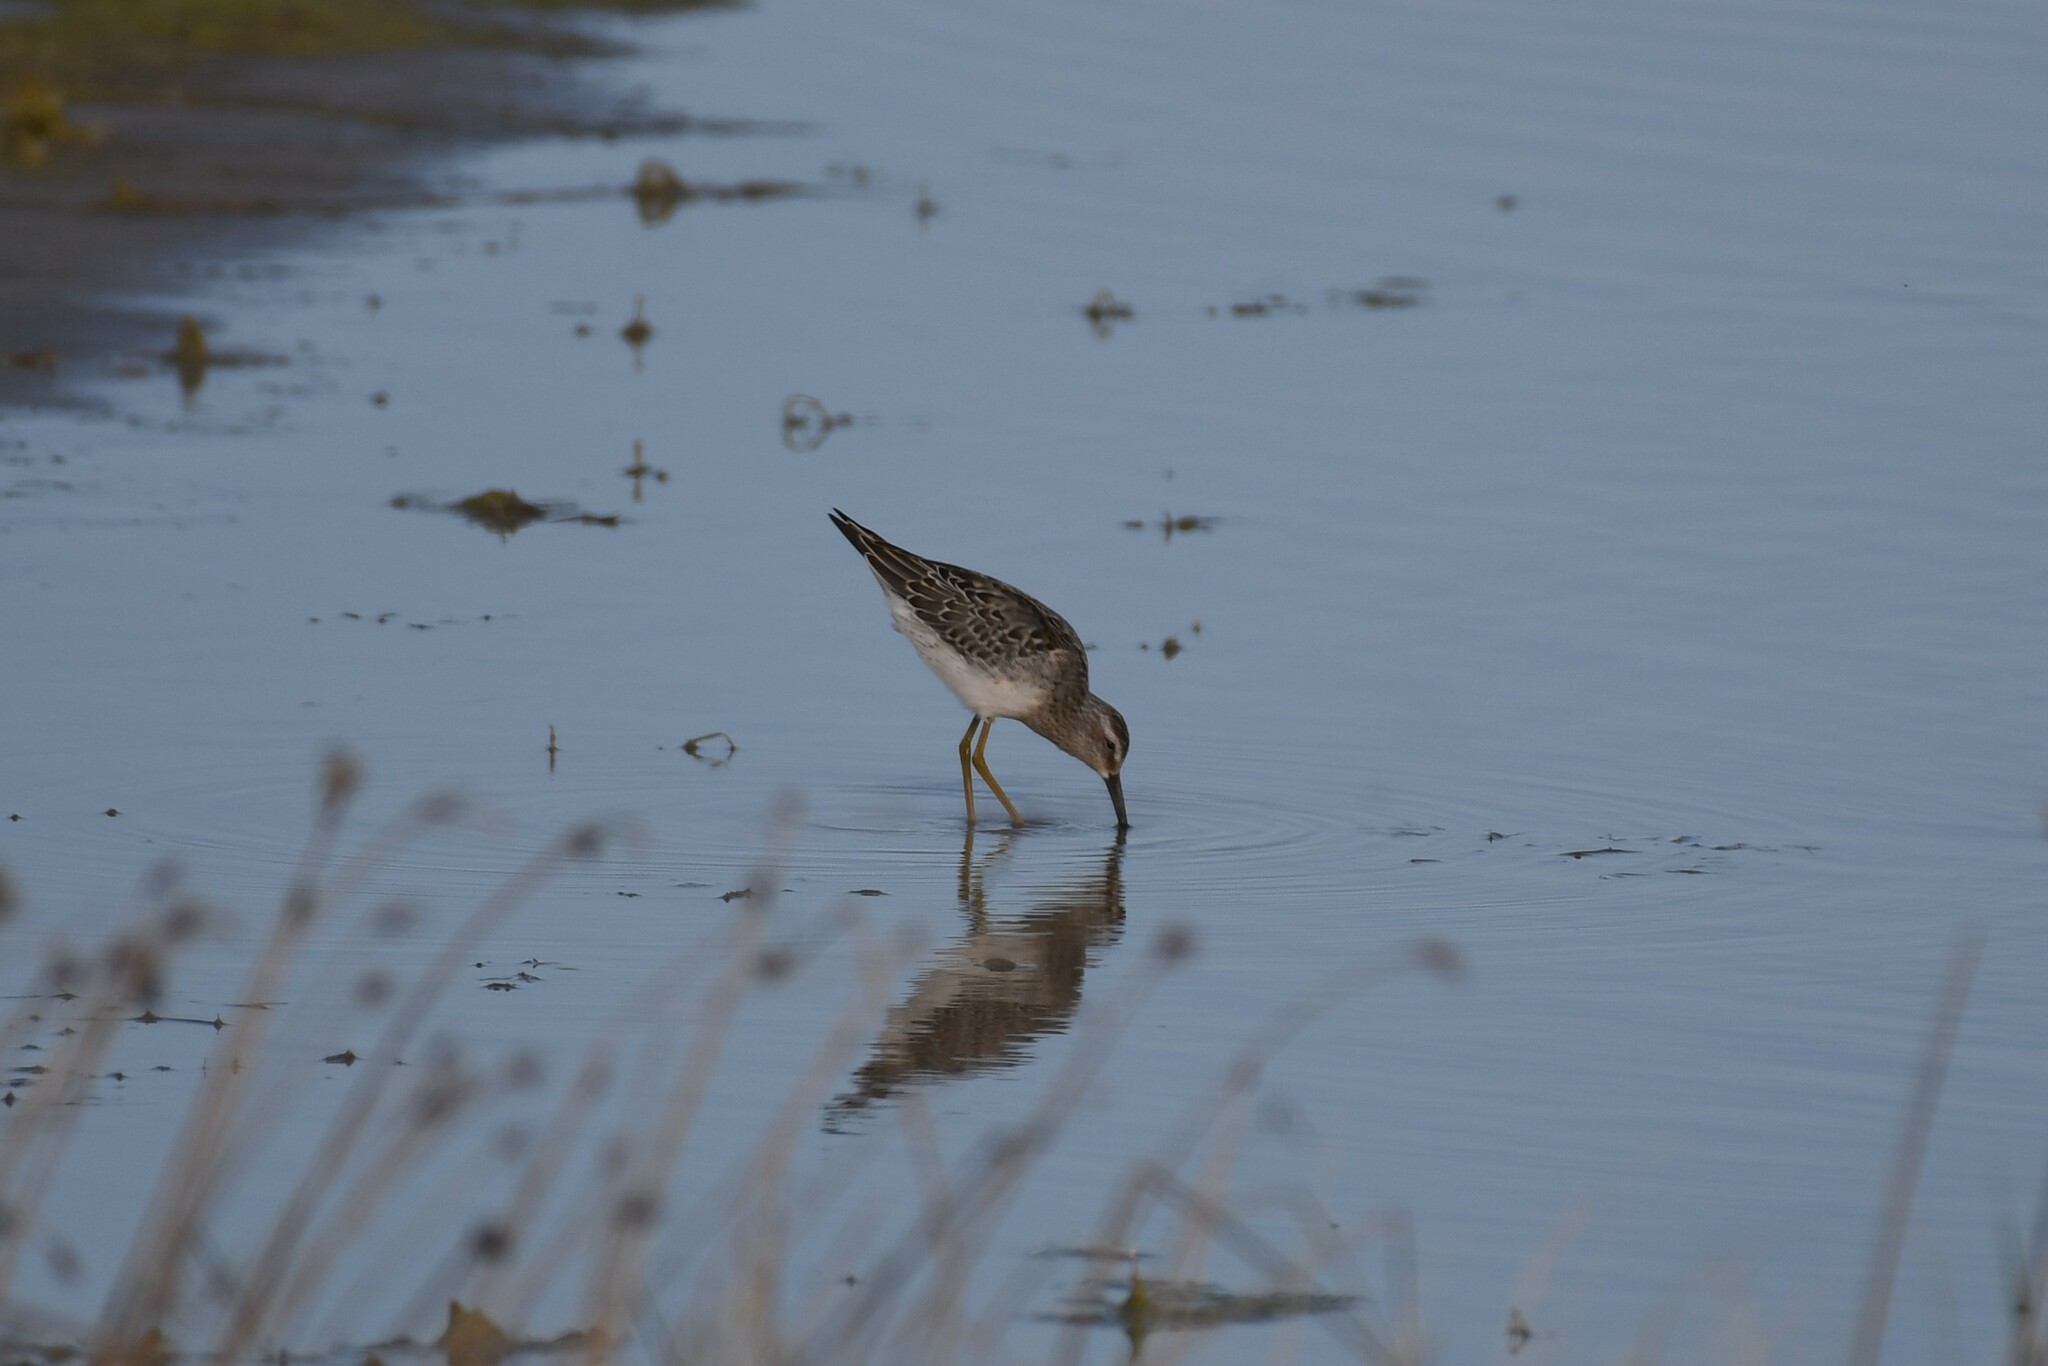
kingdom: Animalia
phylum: Chordata
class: Aves
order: Charadriiformes
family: Scolopacidae
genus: Calidris
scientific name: Calidris himantopus
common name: Stilt sandpiper
